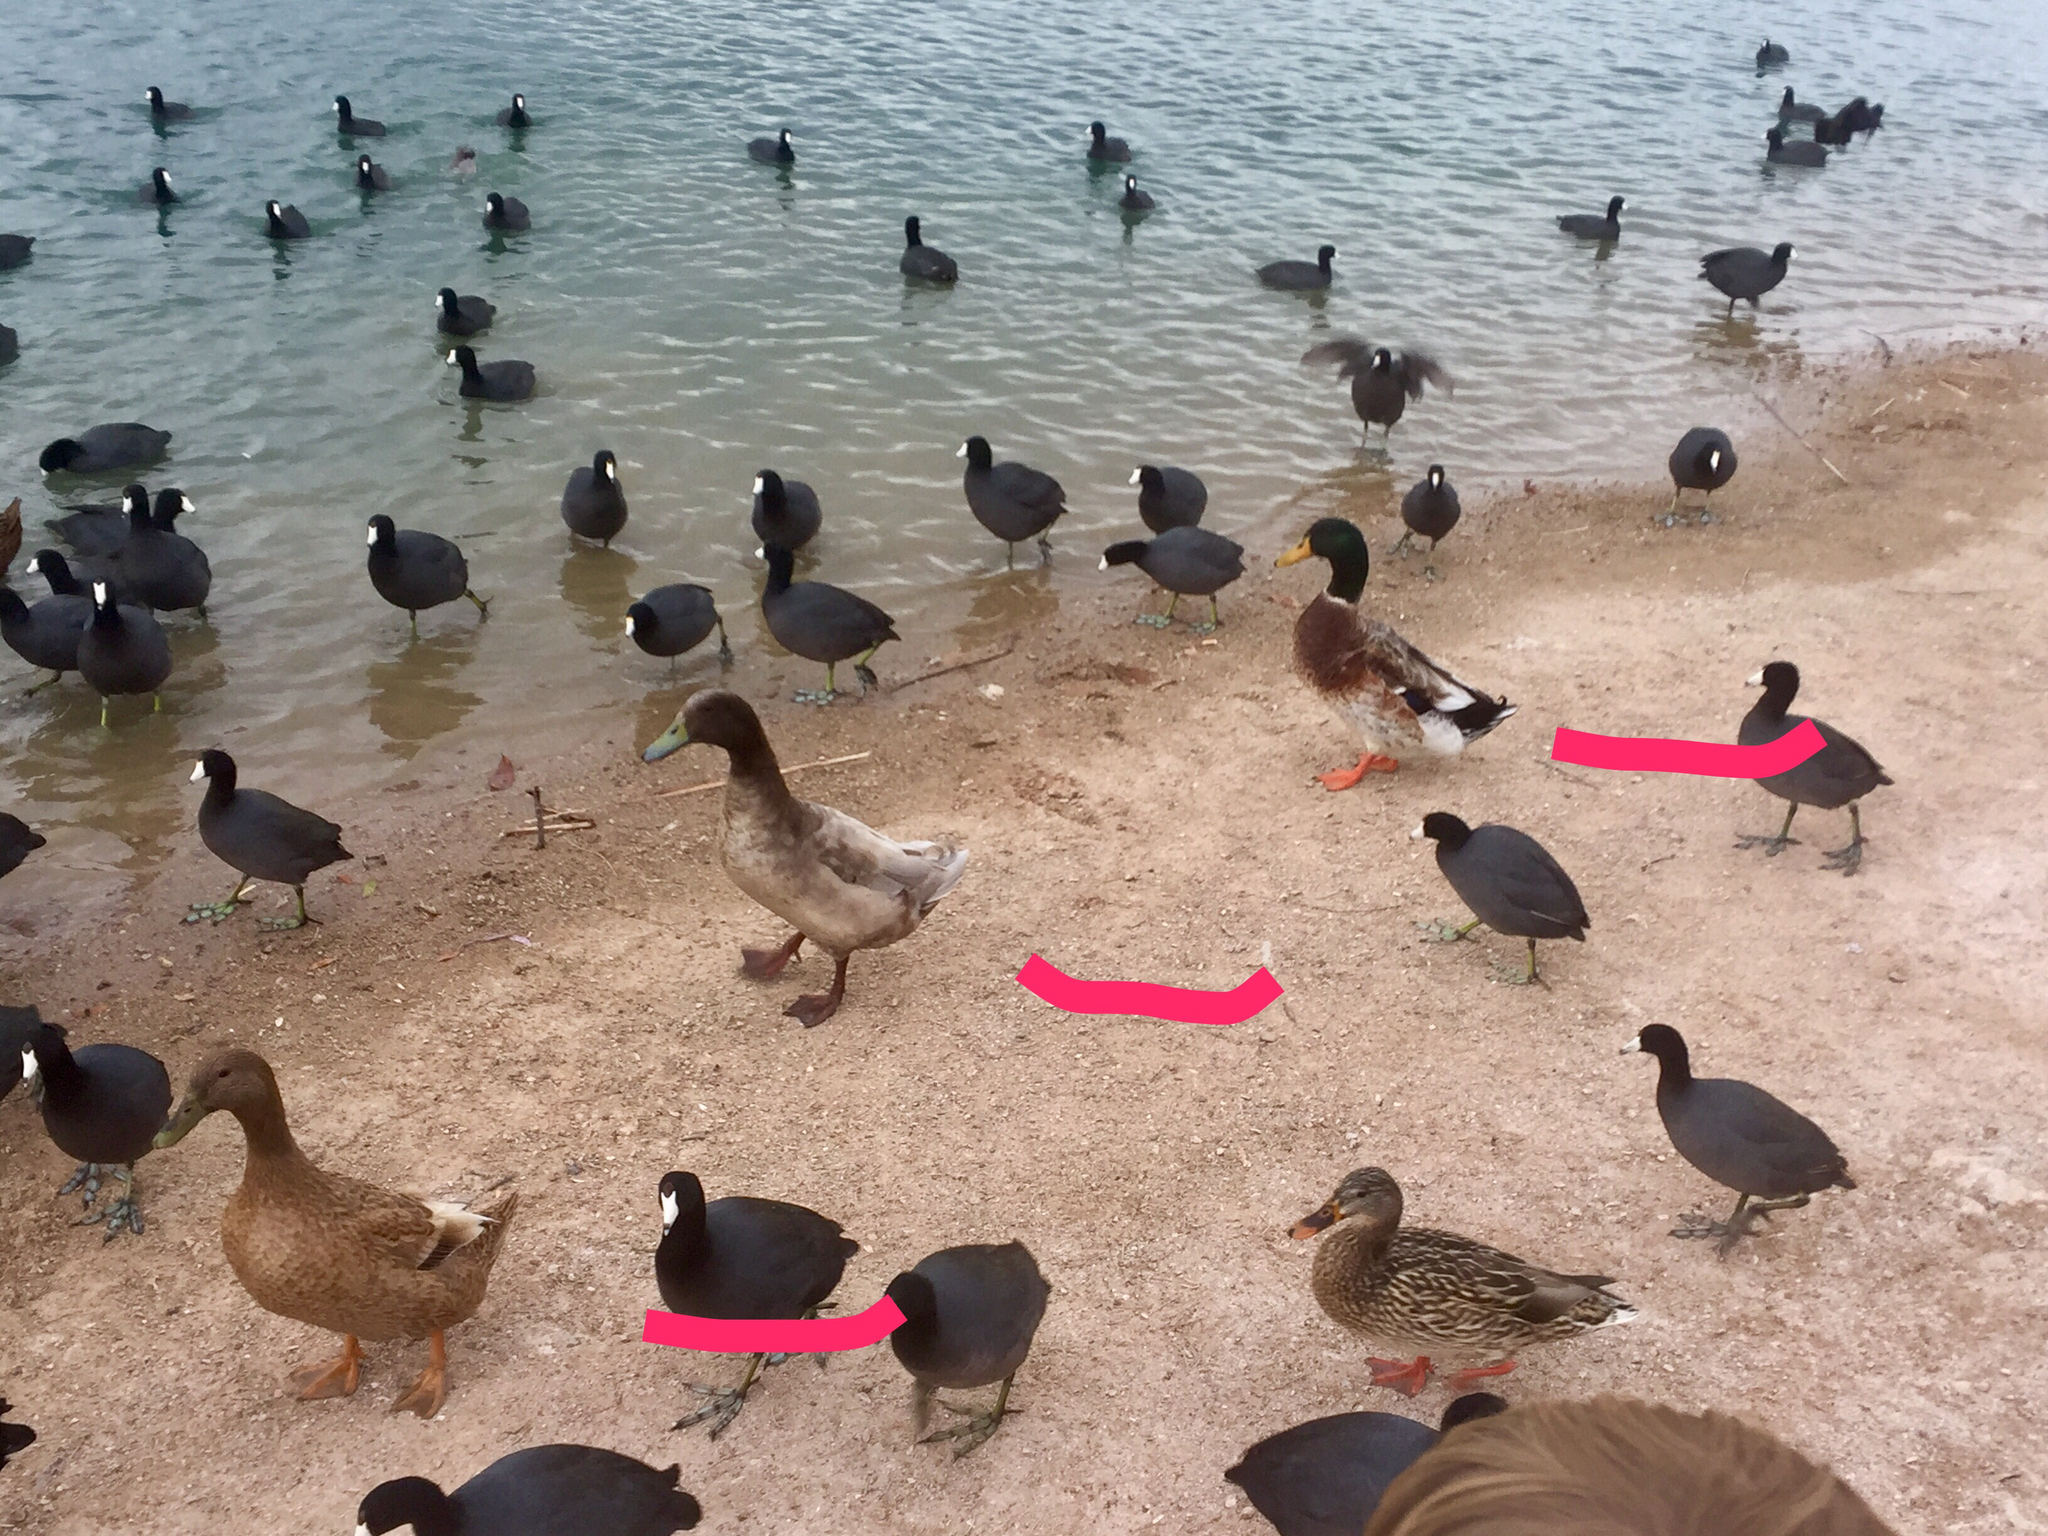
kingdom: Animalia
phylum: Chordata
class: Aves
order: Anseriformes
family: Anatidae
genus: Anas
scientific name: Anas platyrhynchos
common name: Mallard
